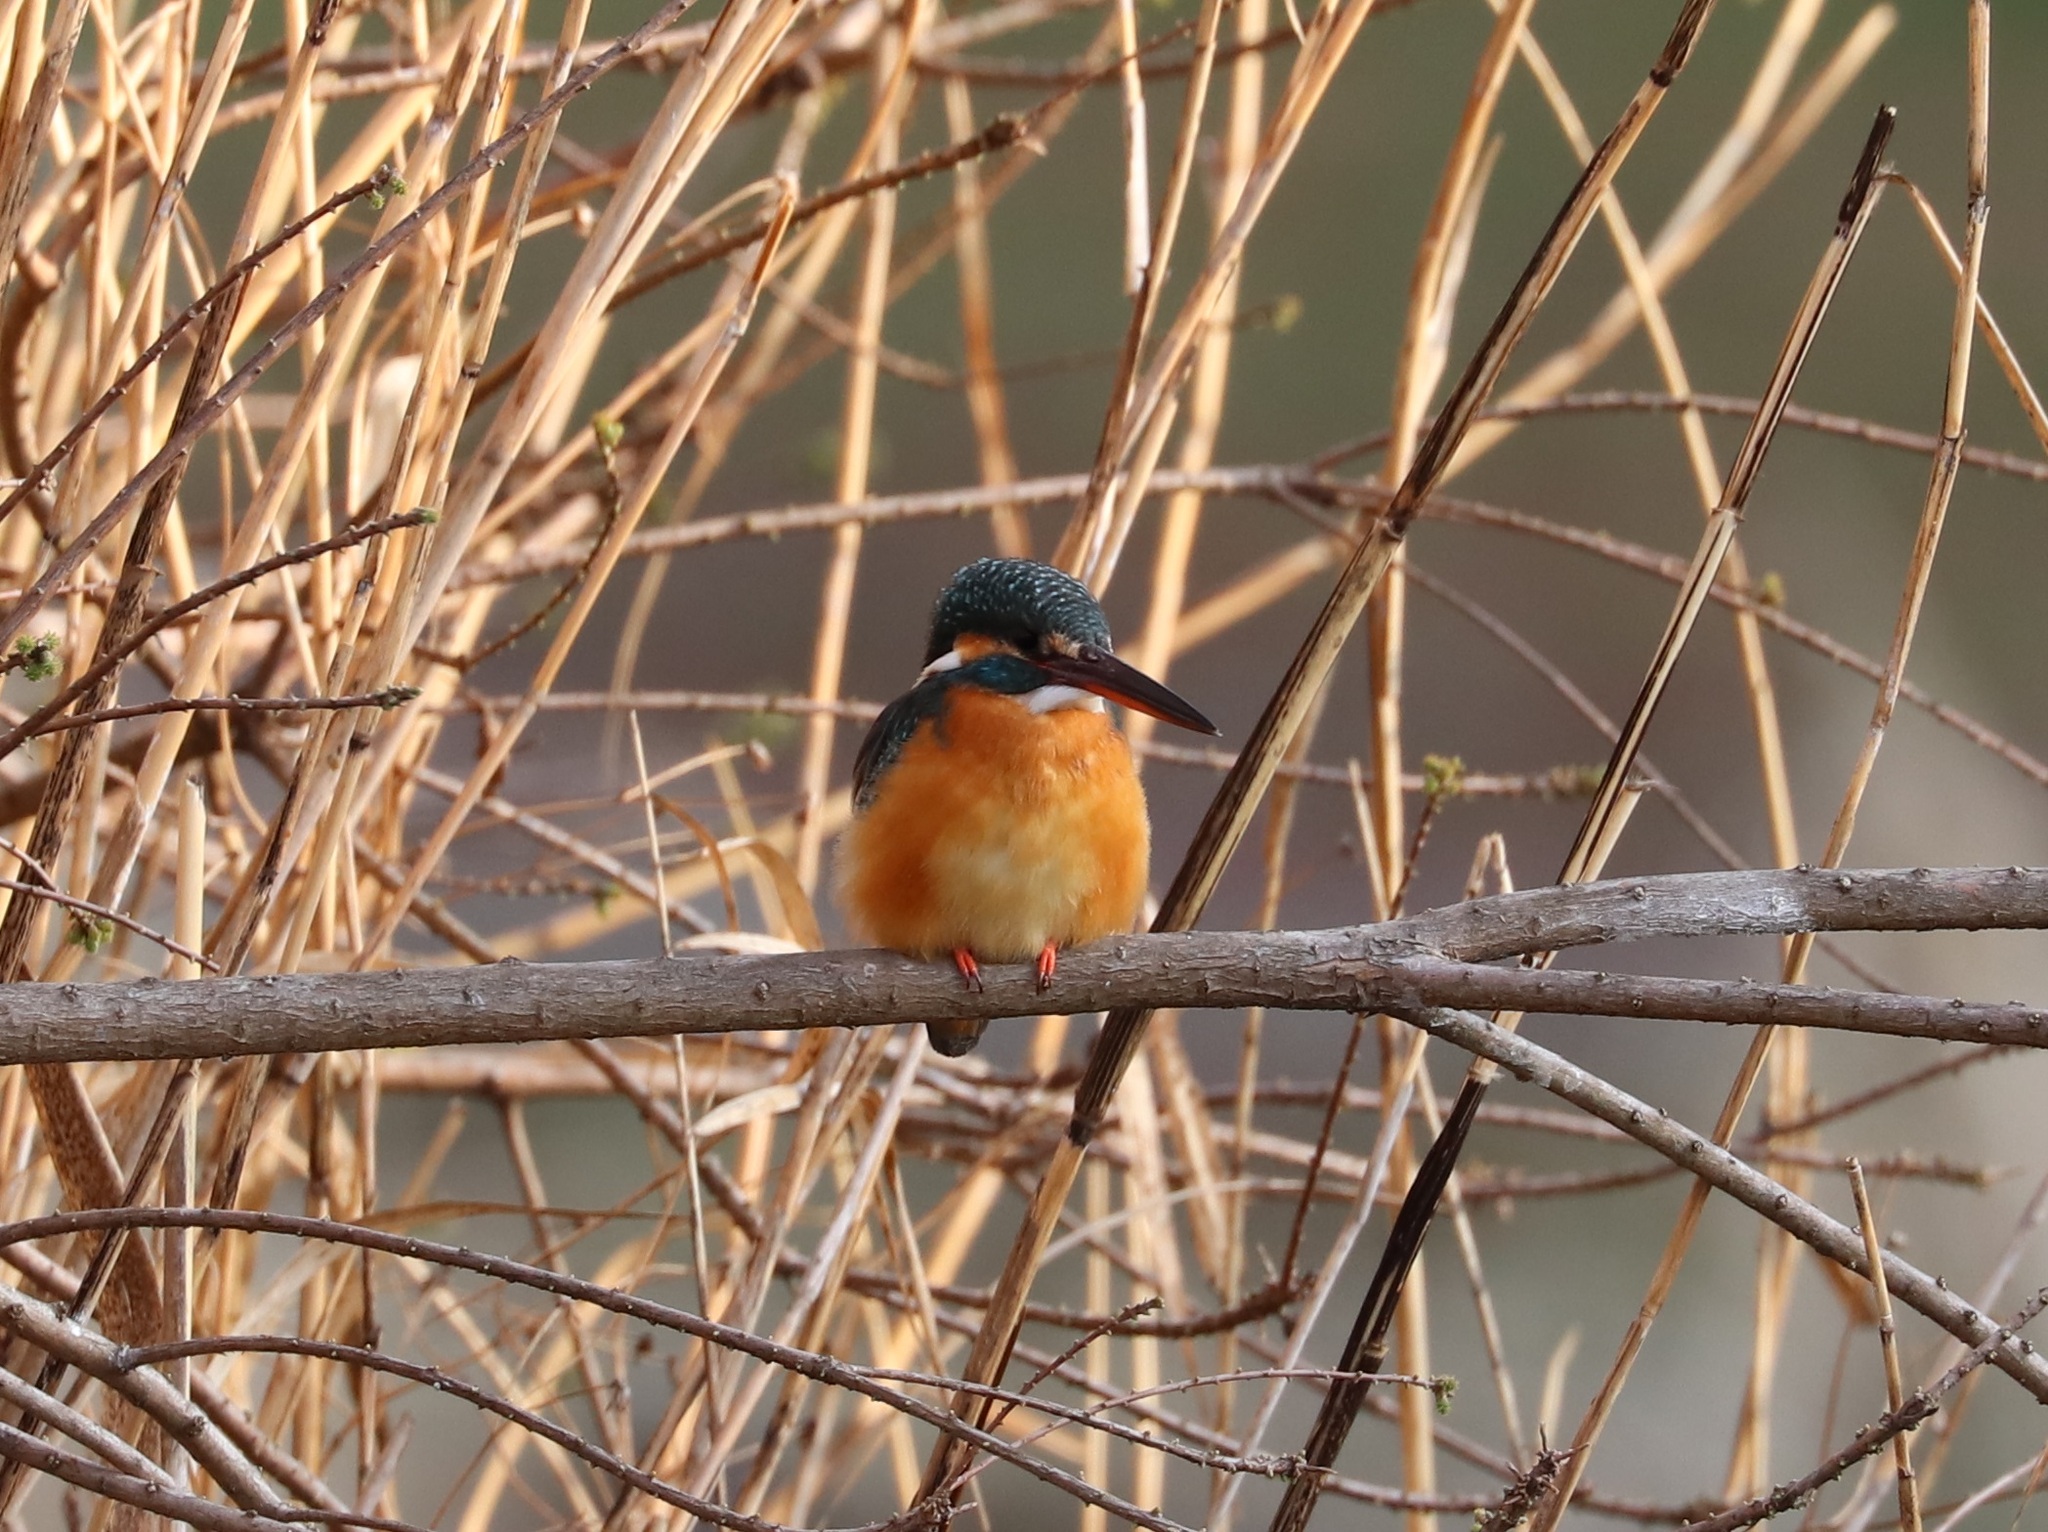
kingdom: Animalia
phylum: Chordata
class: Aves
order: Coraciiformes
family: Alcedinidae
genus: Alcedo
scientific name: Alcedo atthis
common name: Common kingfisher
